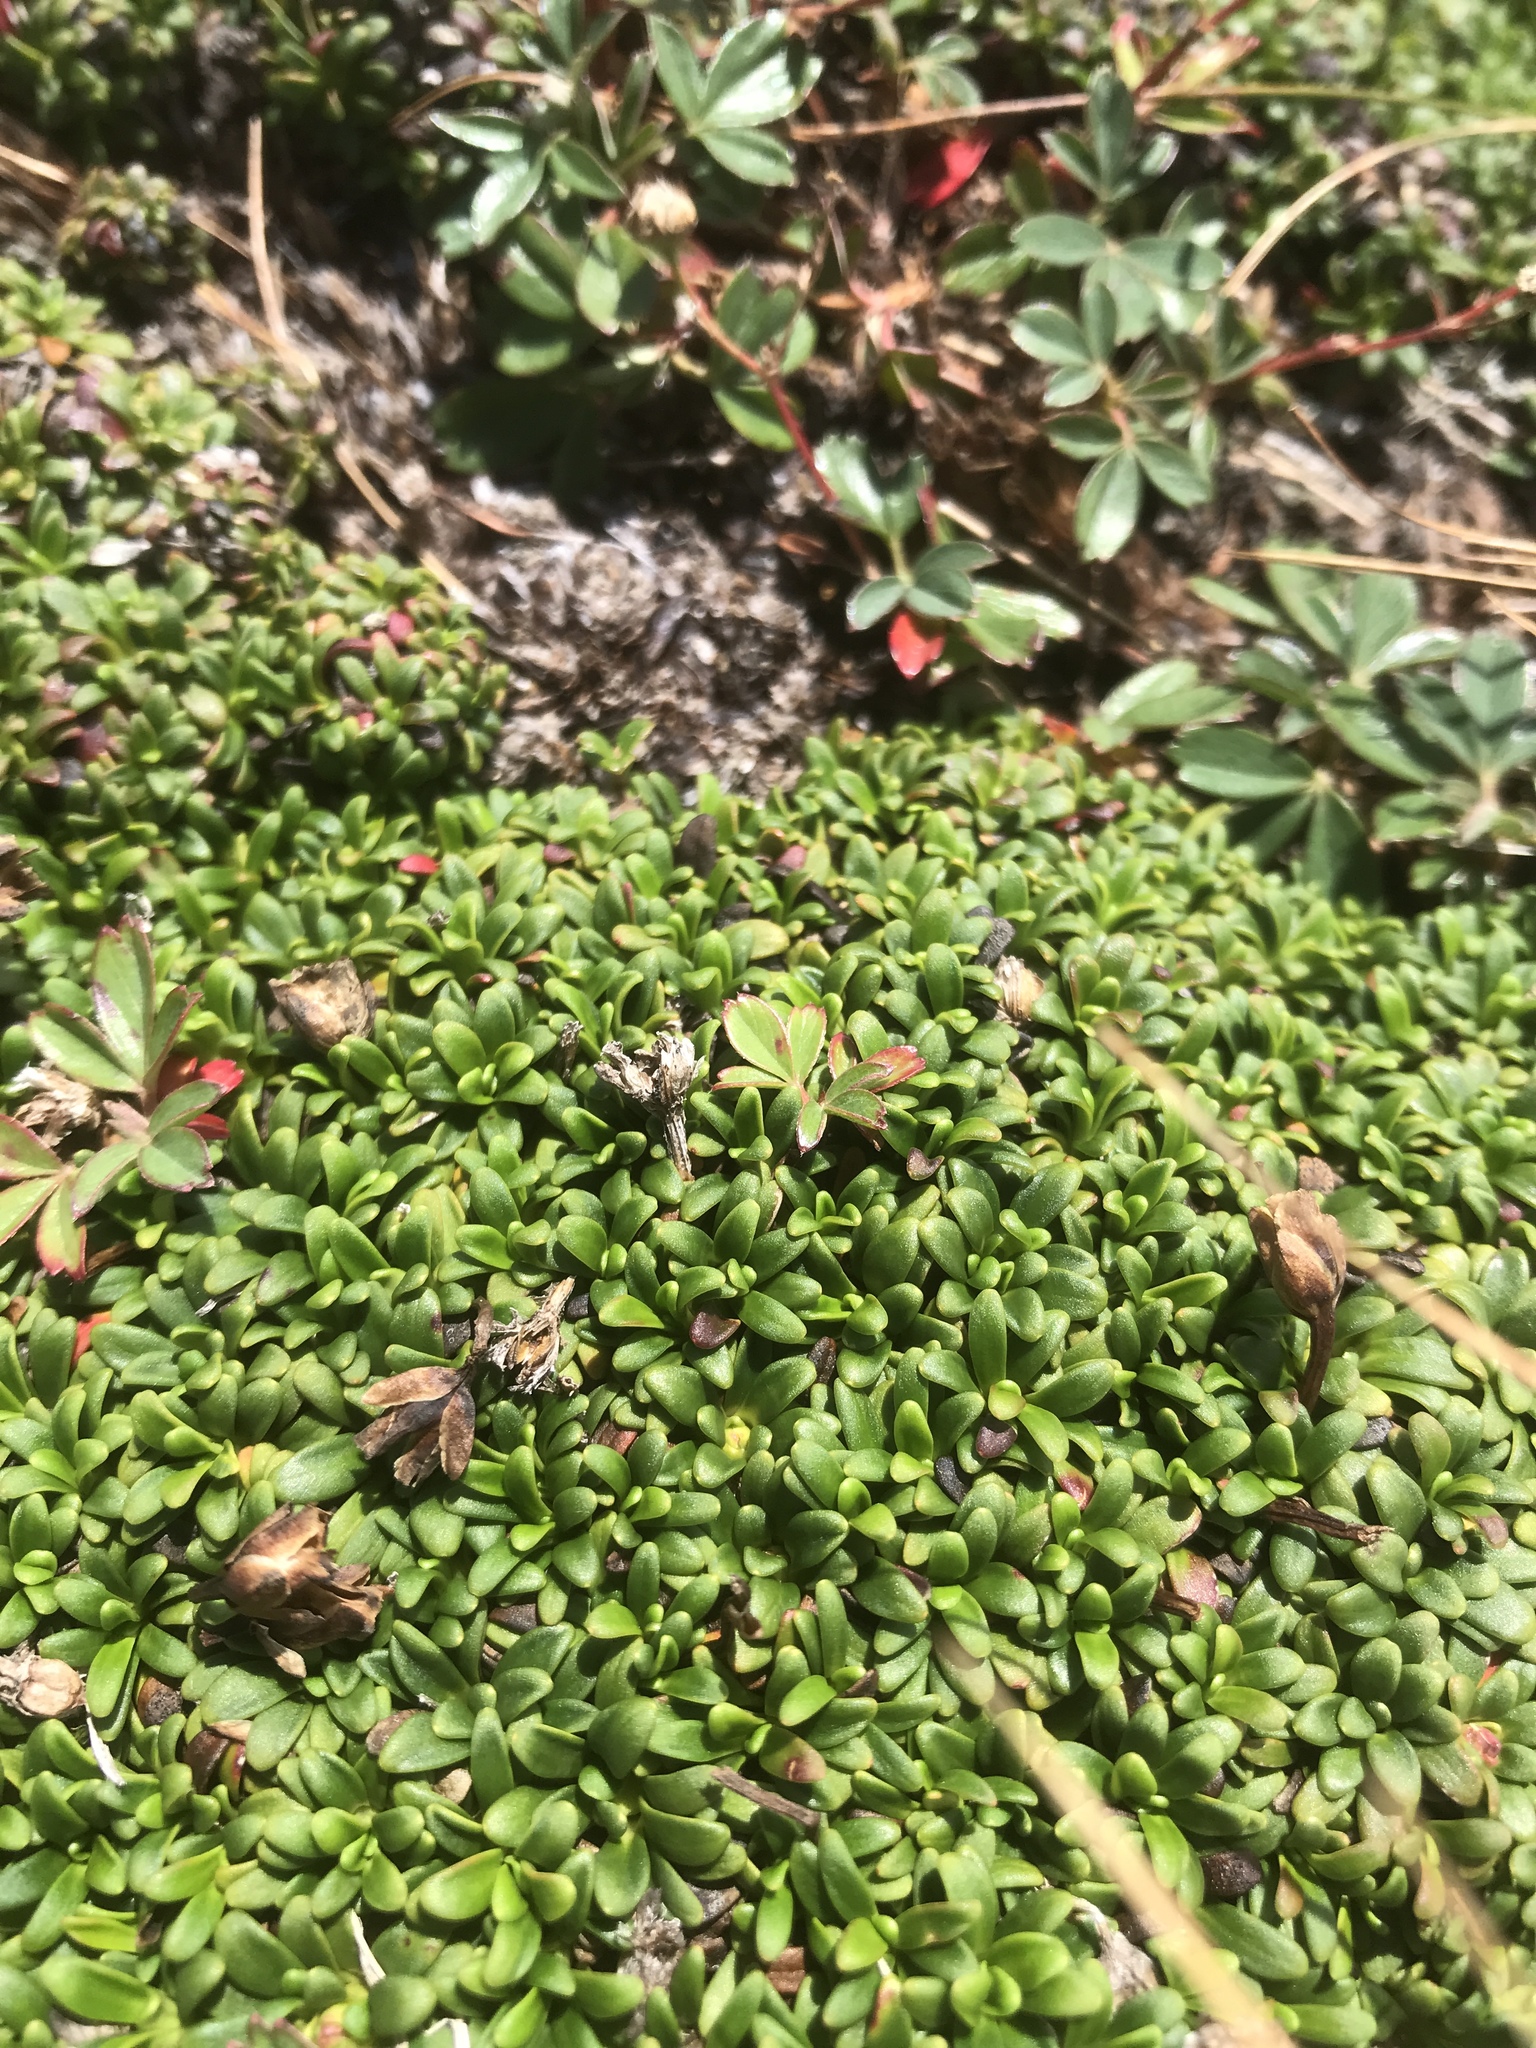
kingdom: Plantae
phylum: Tracheophyta
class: Magnoliopsida
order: Ericales
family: Diapensiaceae
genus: Diapensia
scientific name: Diapensia lapponica
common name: Diapensia
